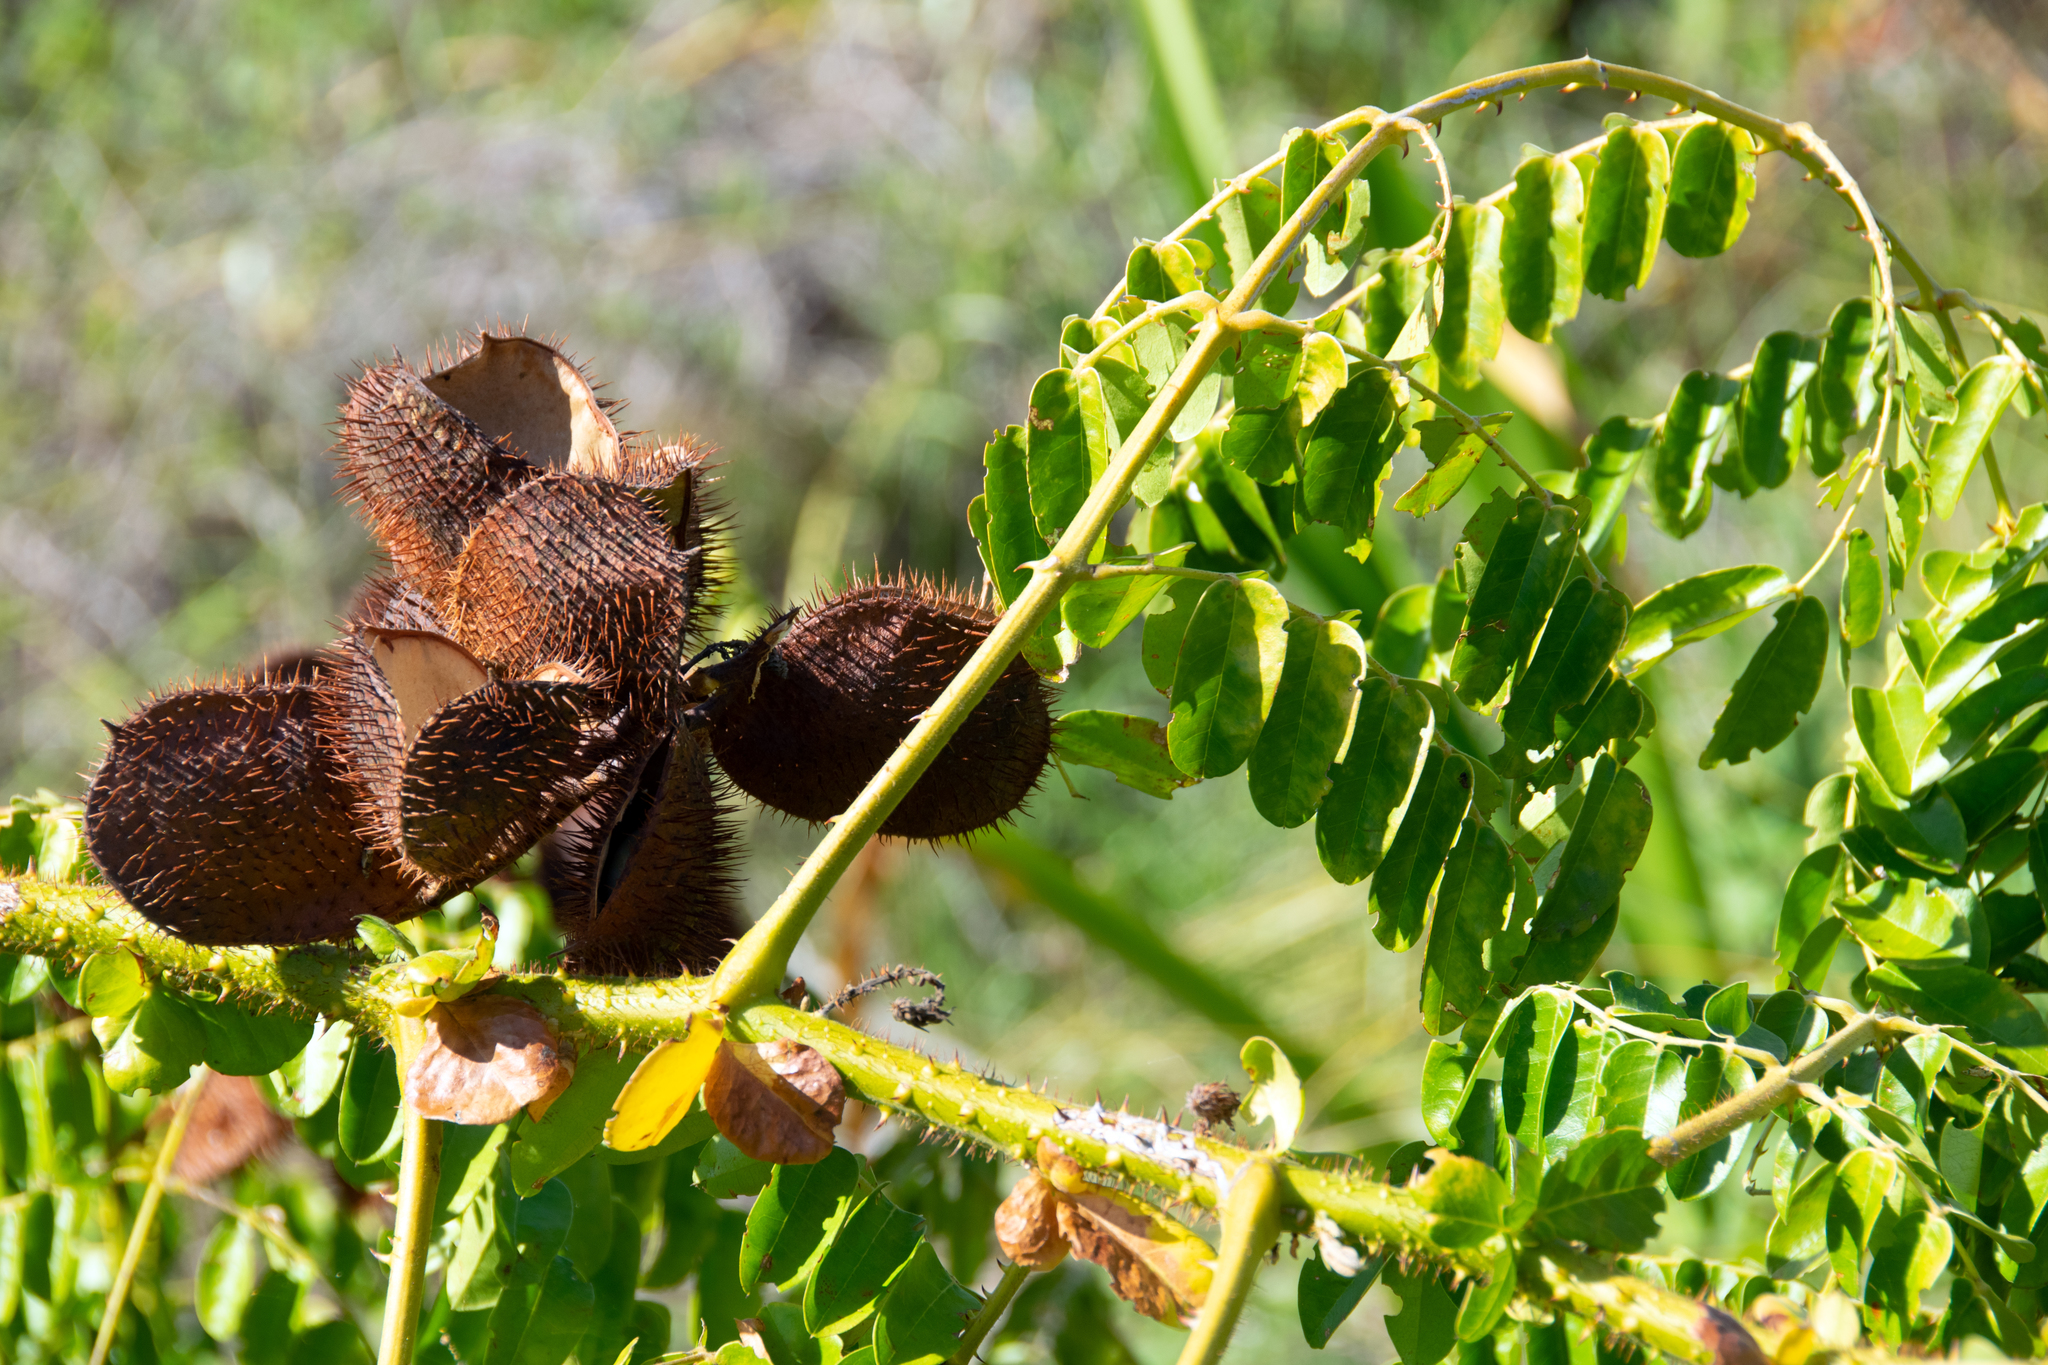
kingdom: Plantae
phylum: Tracheophyta
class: Magnoliopsida
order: Fabales
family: Fabaceae
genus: Guilandina
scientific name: Guilandina bonduc
